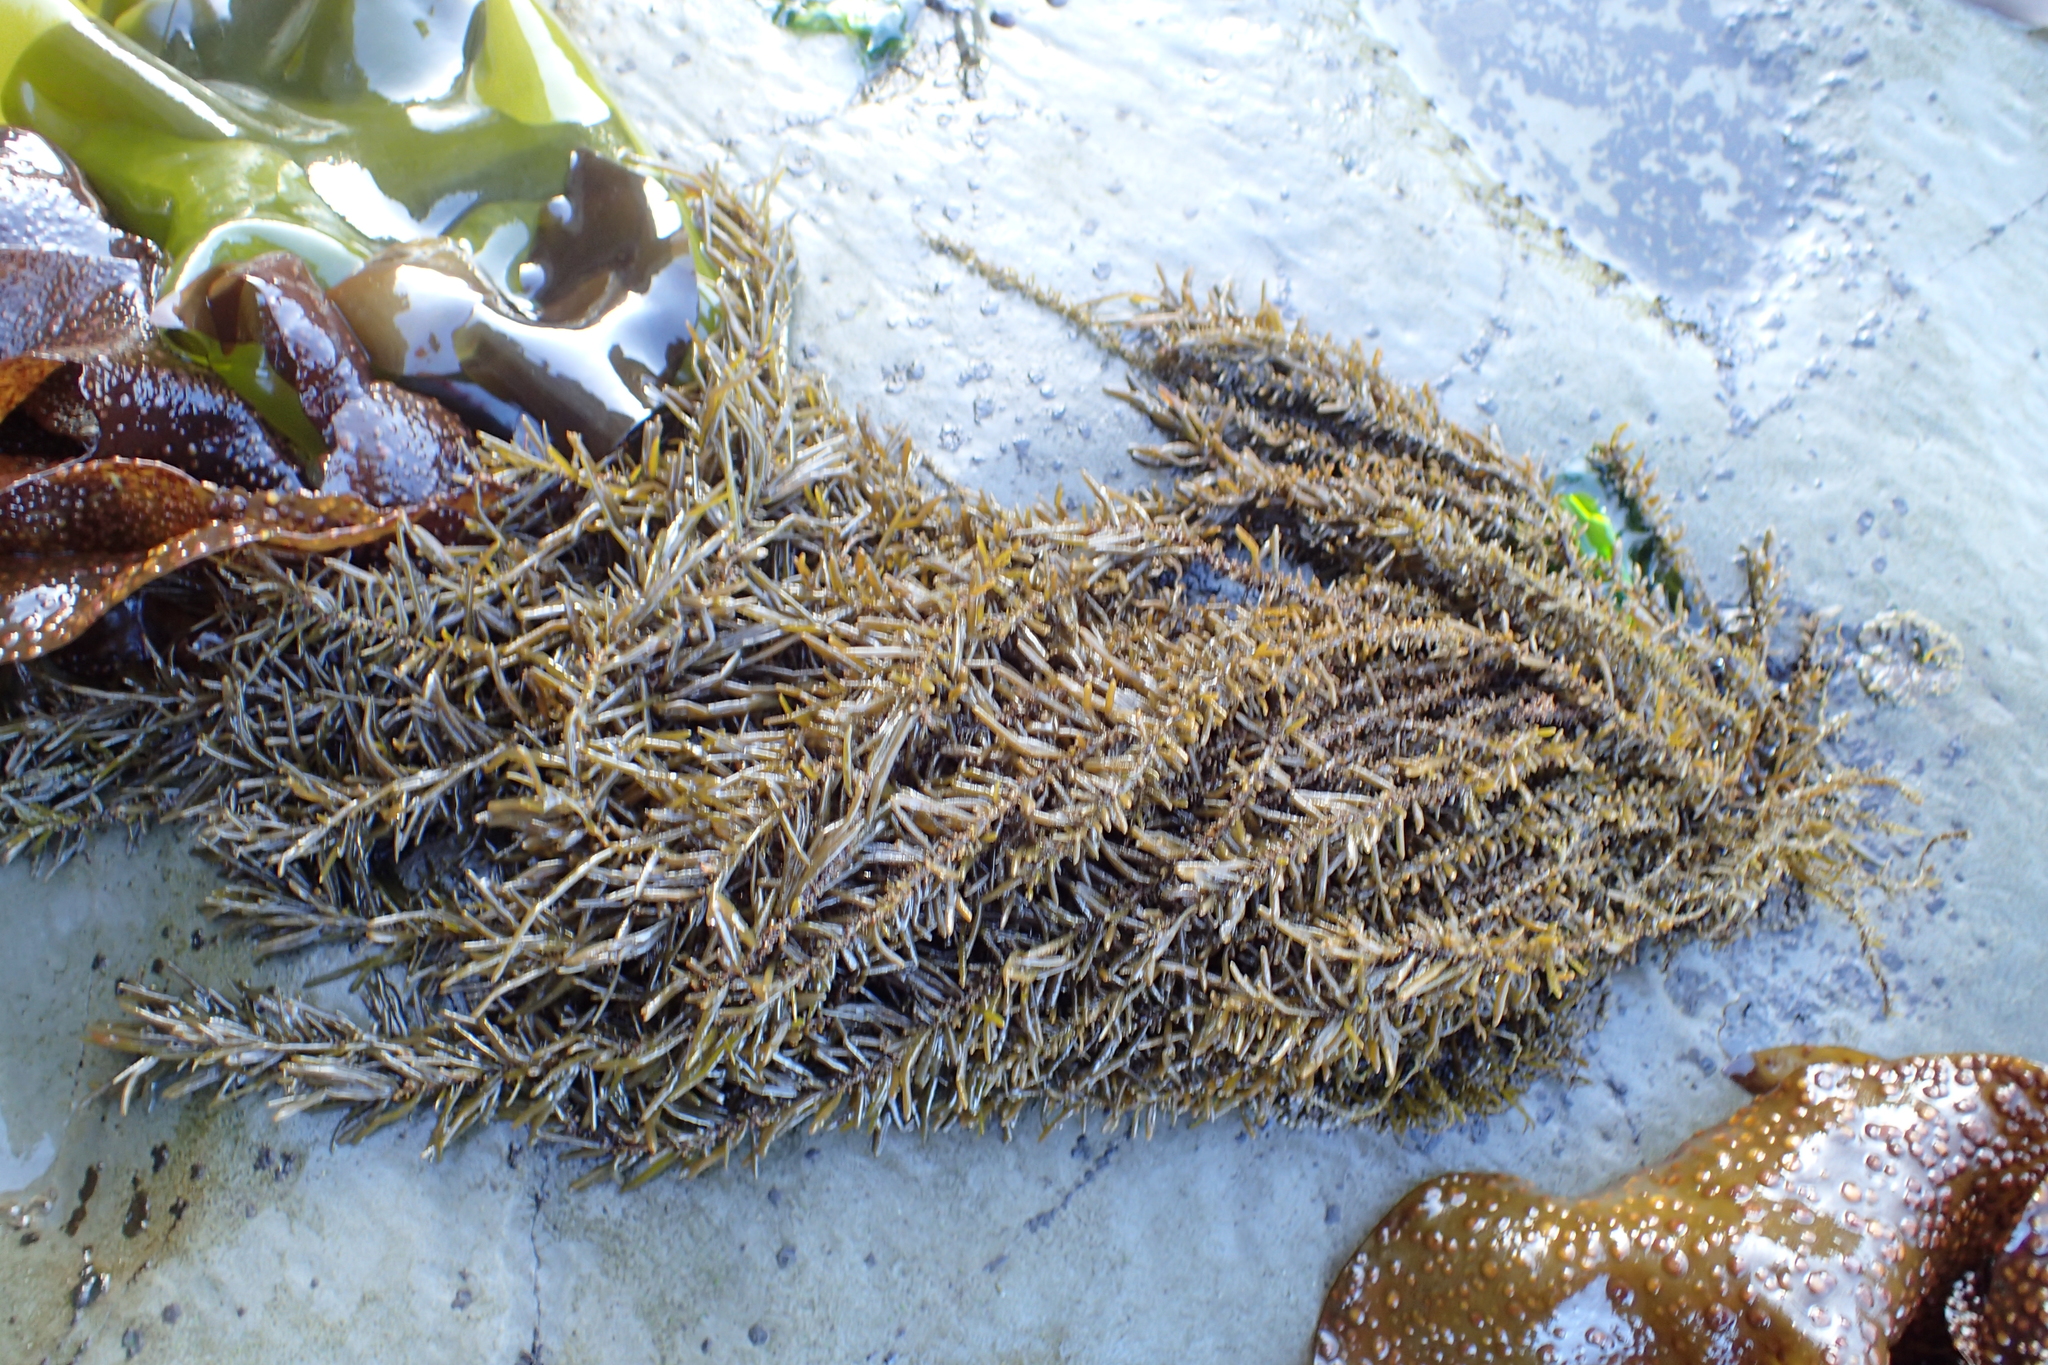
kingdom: Chromista
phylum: Ochrophyta
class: Phaeophyceae
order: Scytosiphonales
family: Scytosiphonaceae
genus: Analipus
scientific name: Analipus japonicus
